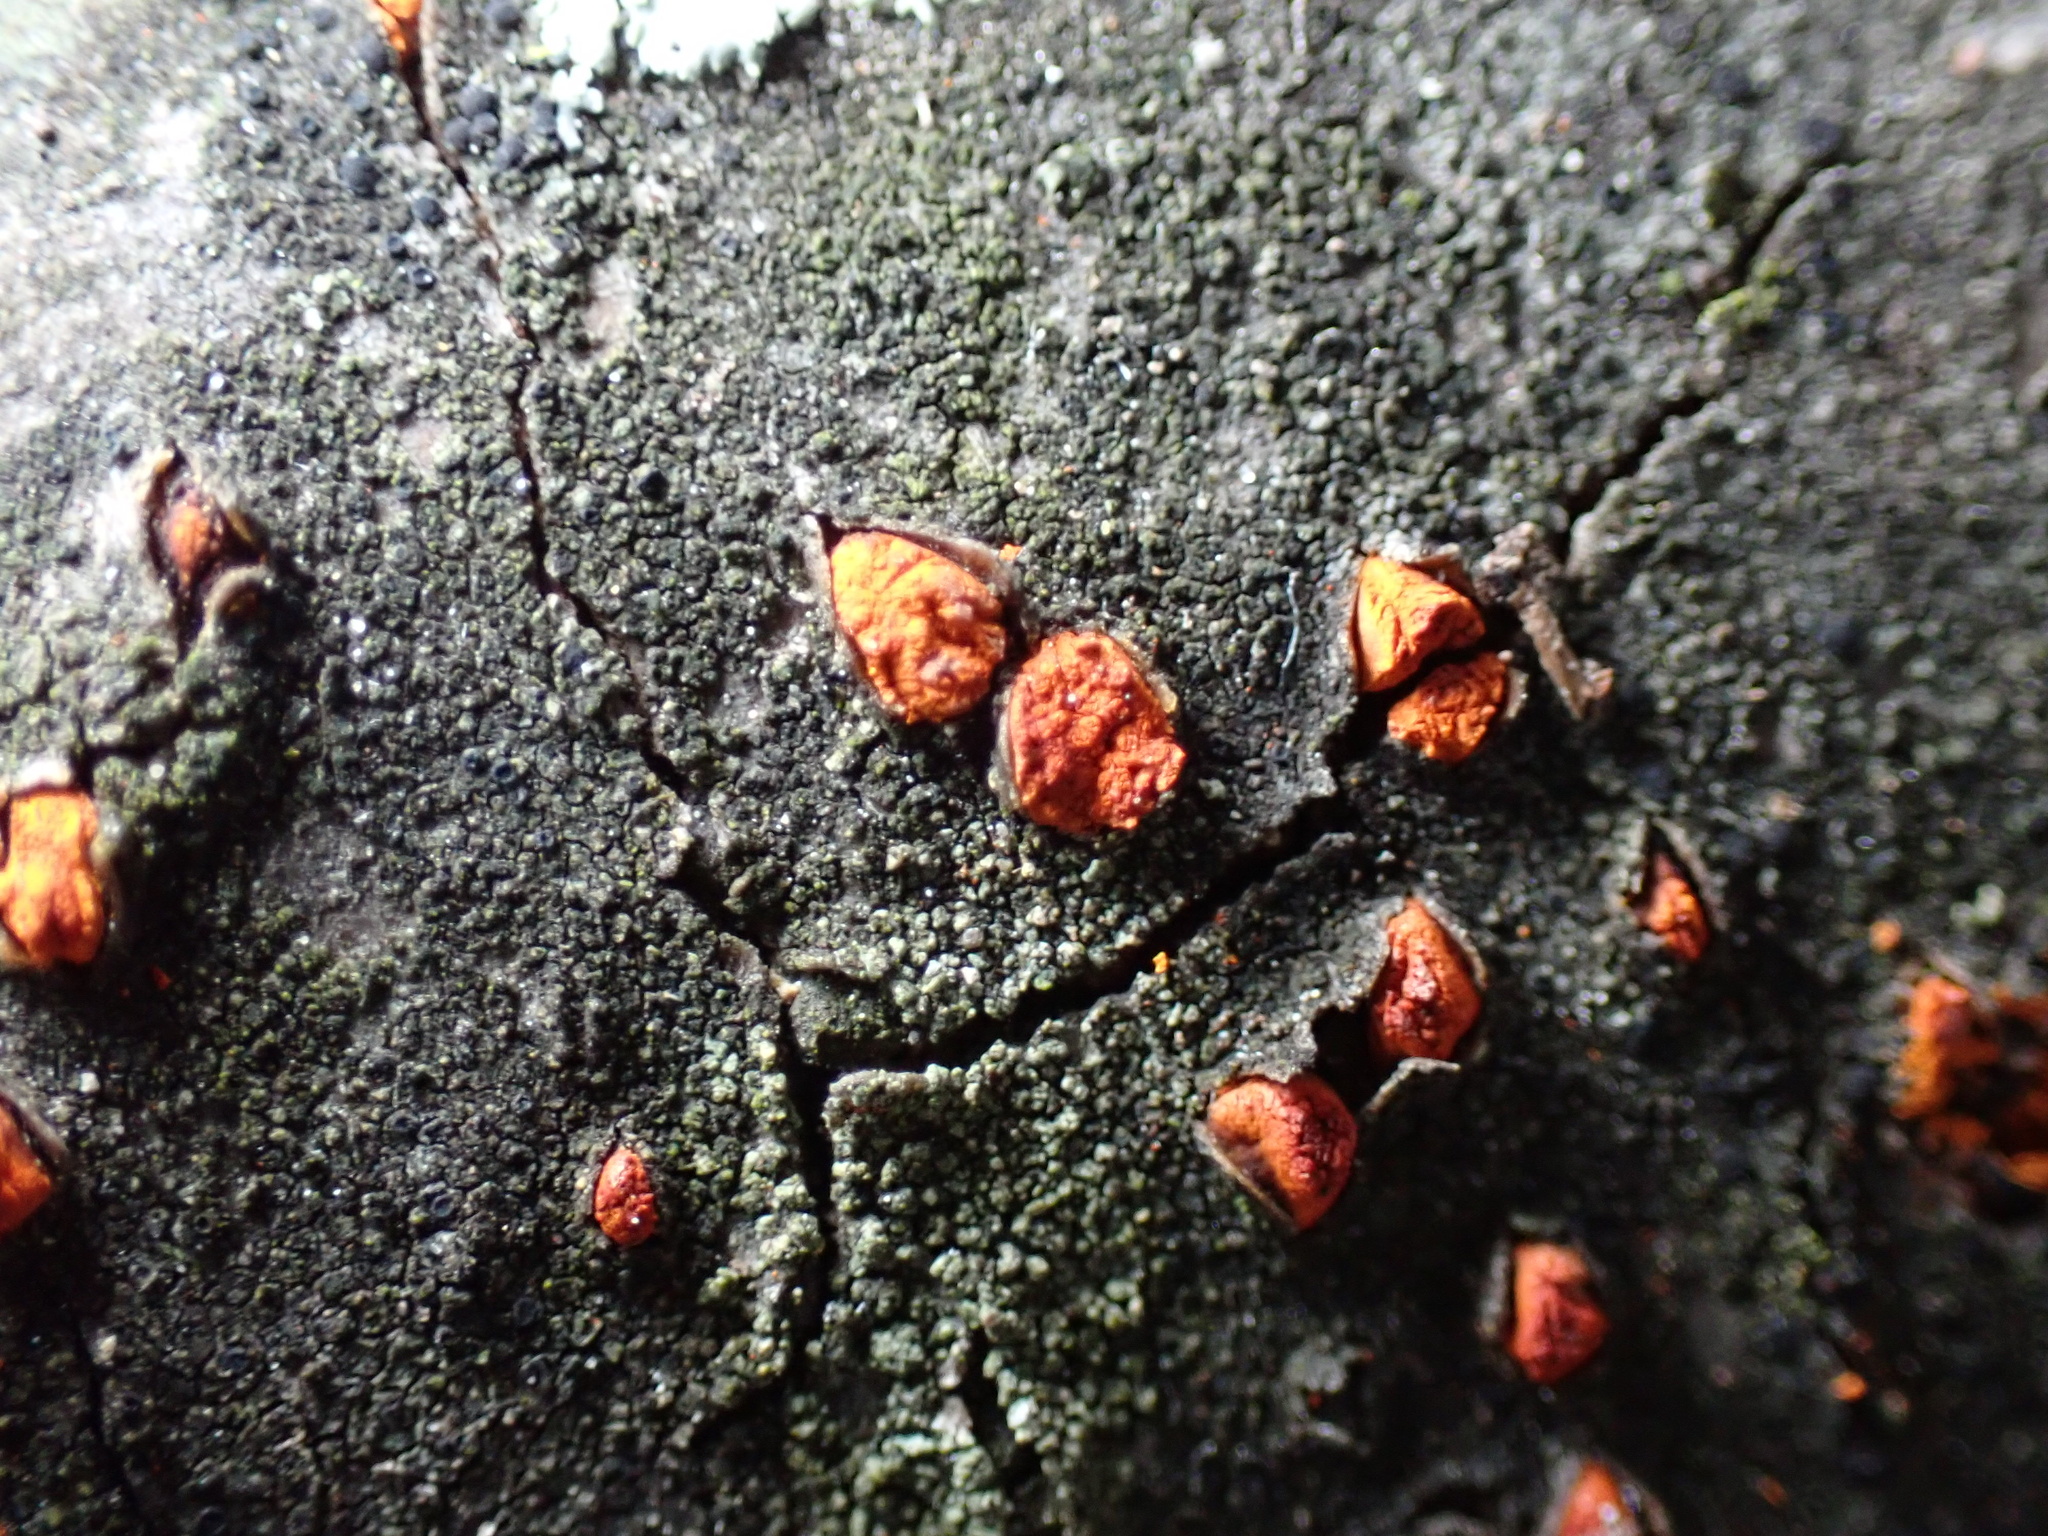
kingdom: Fungi
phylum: Ascomycota
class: Sordariomycetes
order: Diaporthales
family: Cryphonectriaceae
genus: Amphilogia
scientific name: Amphilogia gyrosa
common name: Orange hobnail canker
